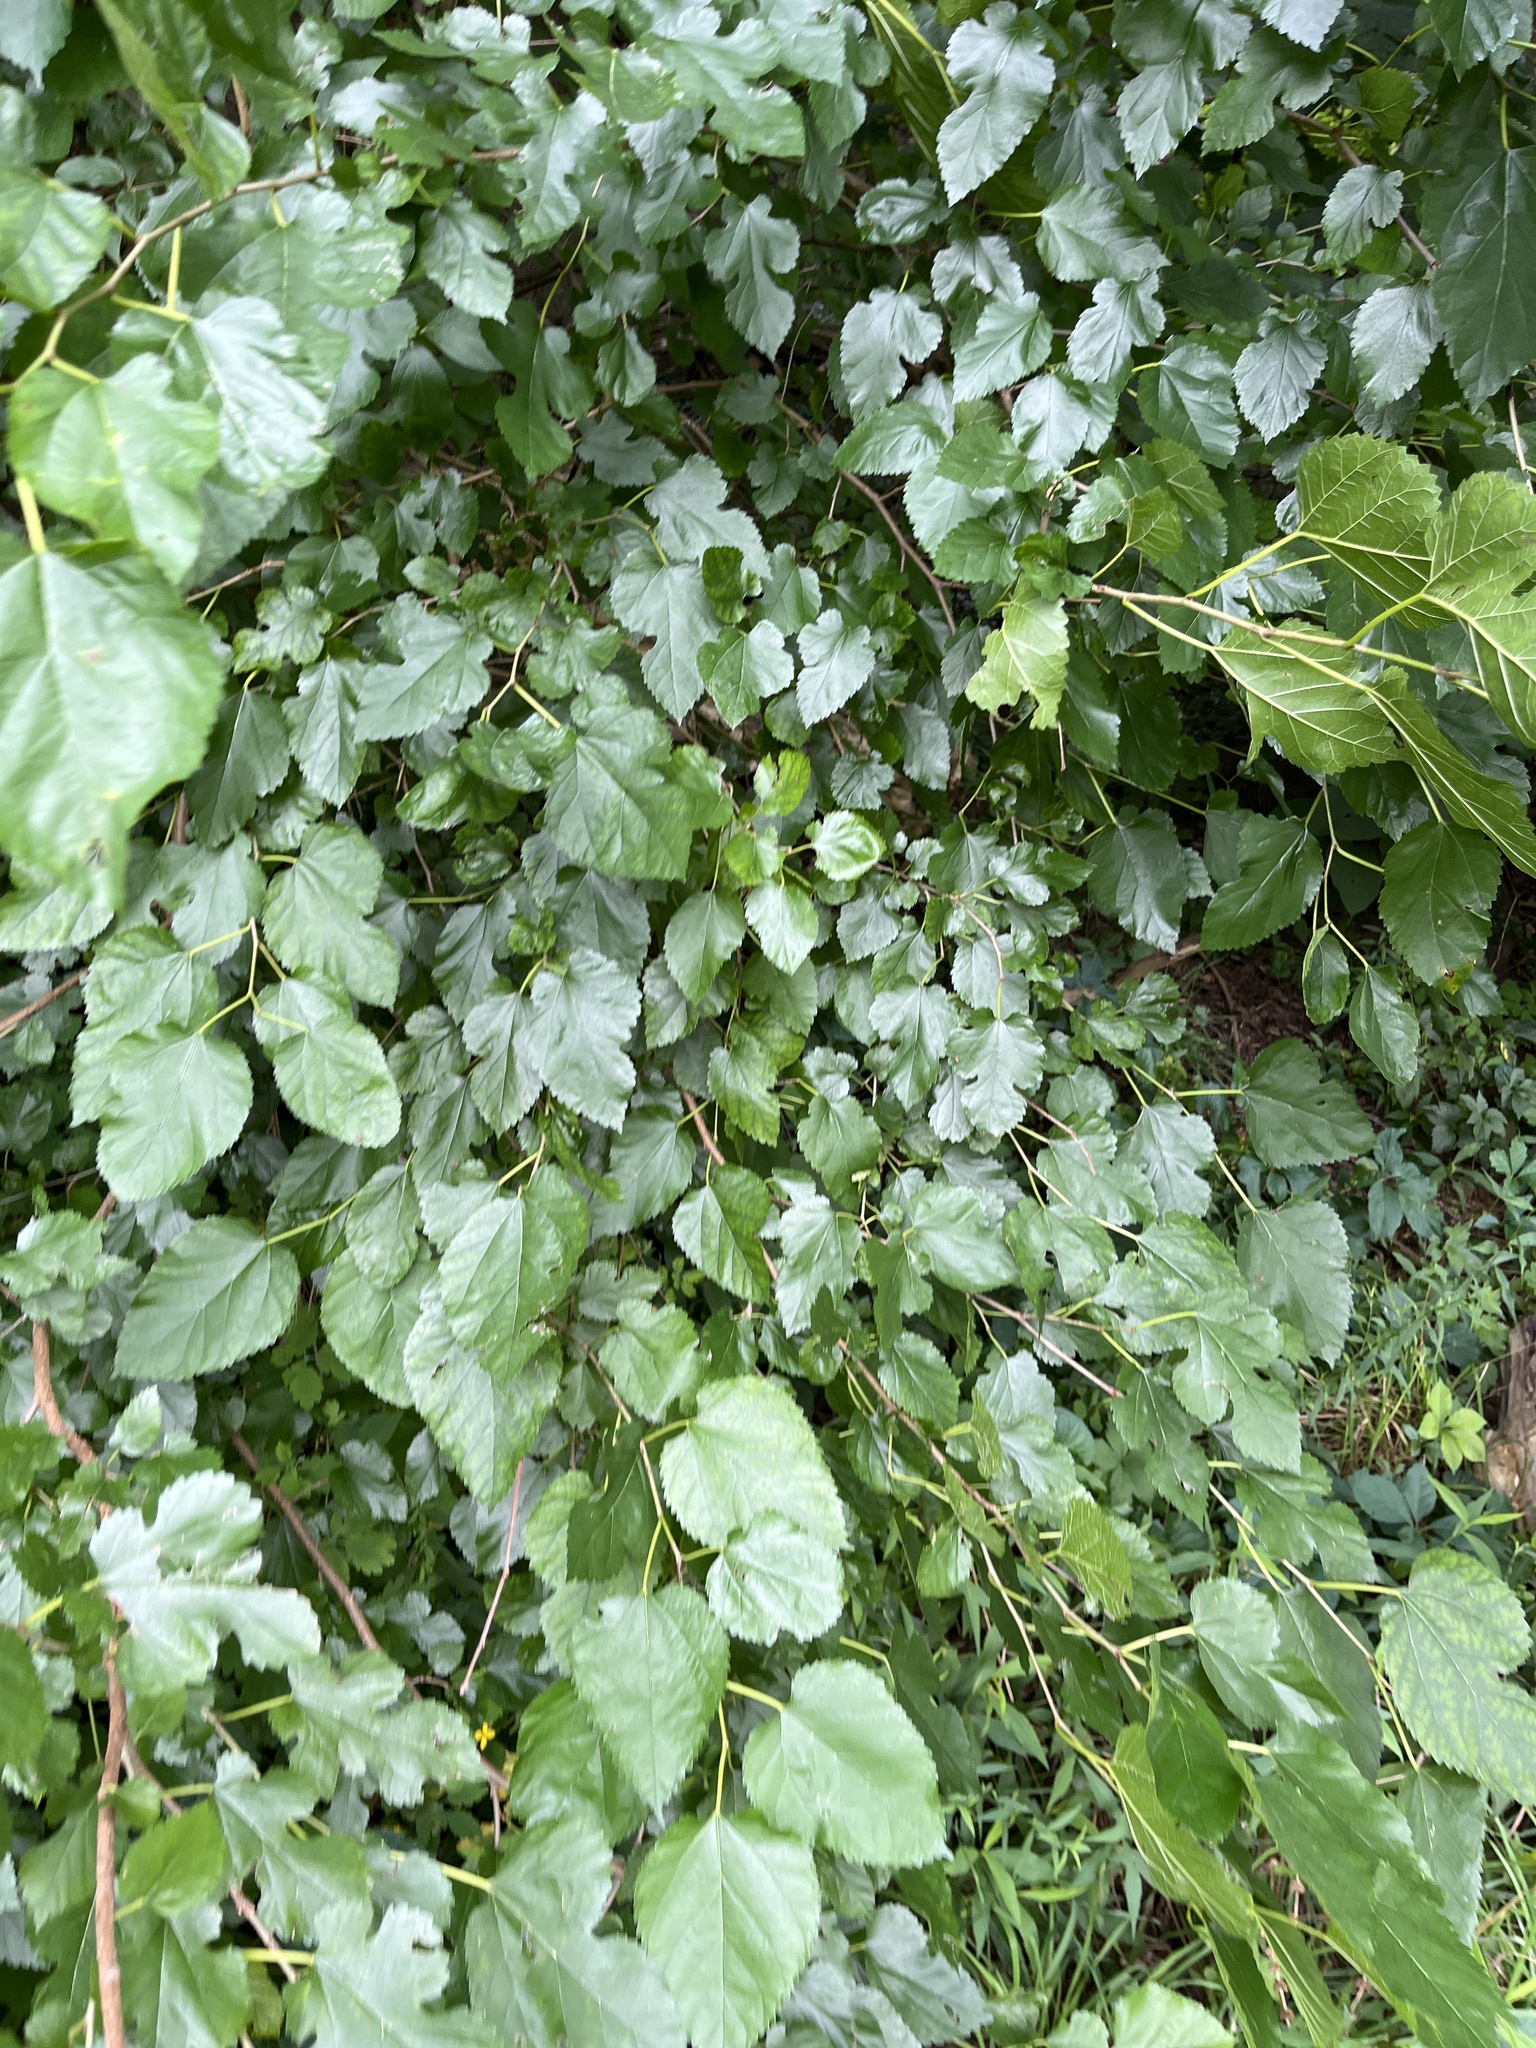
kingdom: Plantae
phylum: Tracheophyta
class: Magnoliopsida
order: Rosales
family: Moraceae
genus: Morus
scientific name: Morus alba
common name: White mulberry
